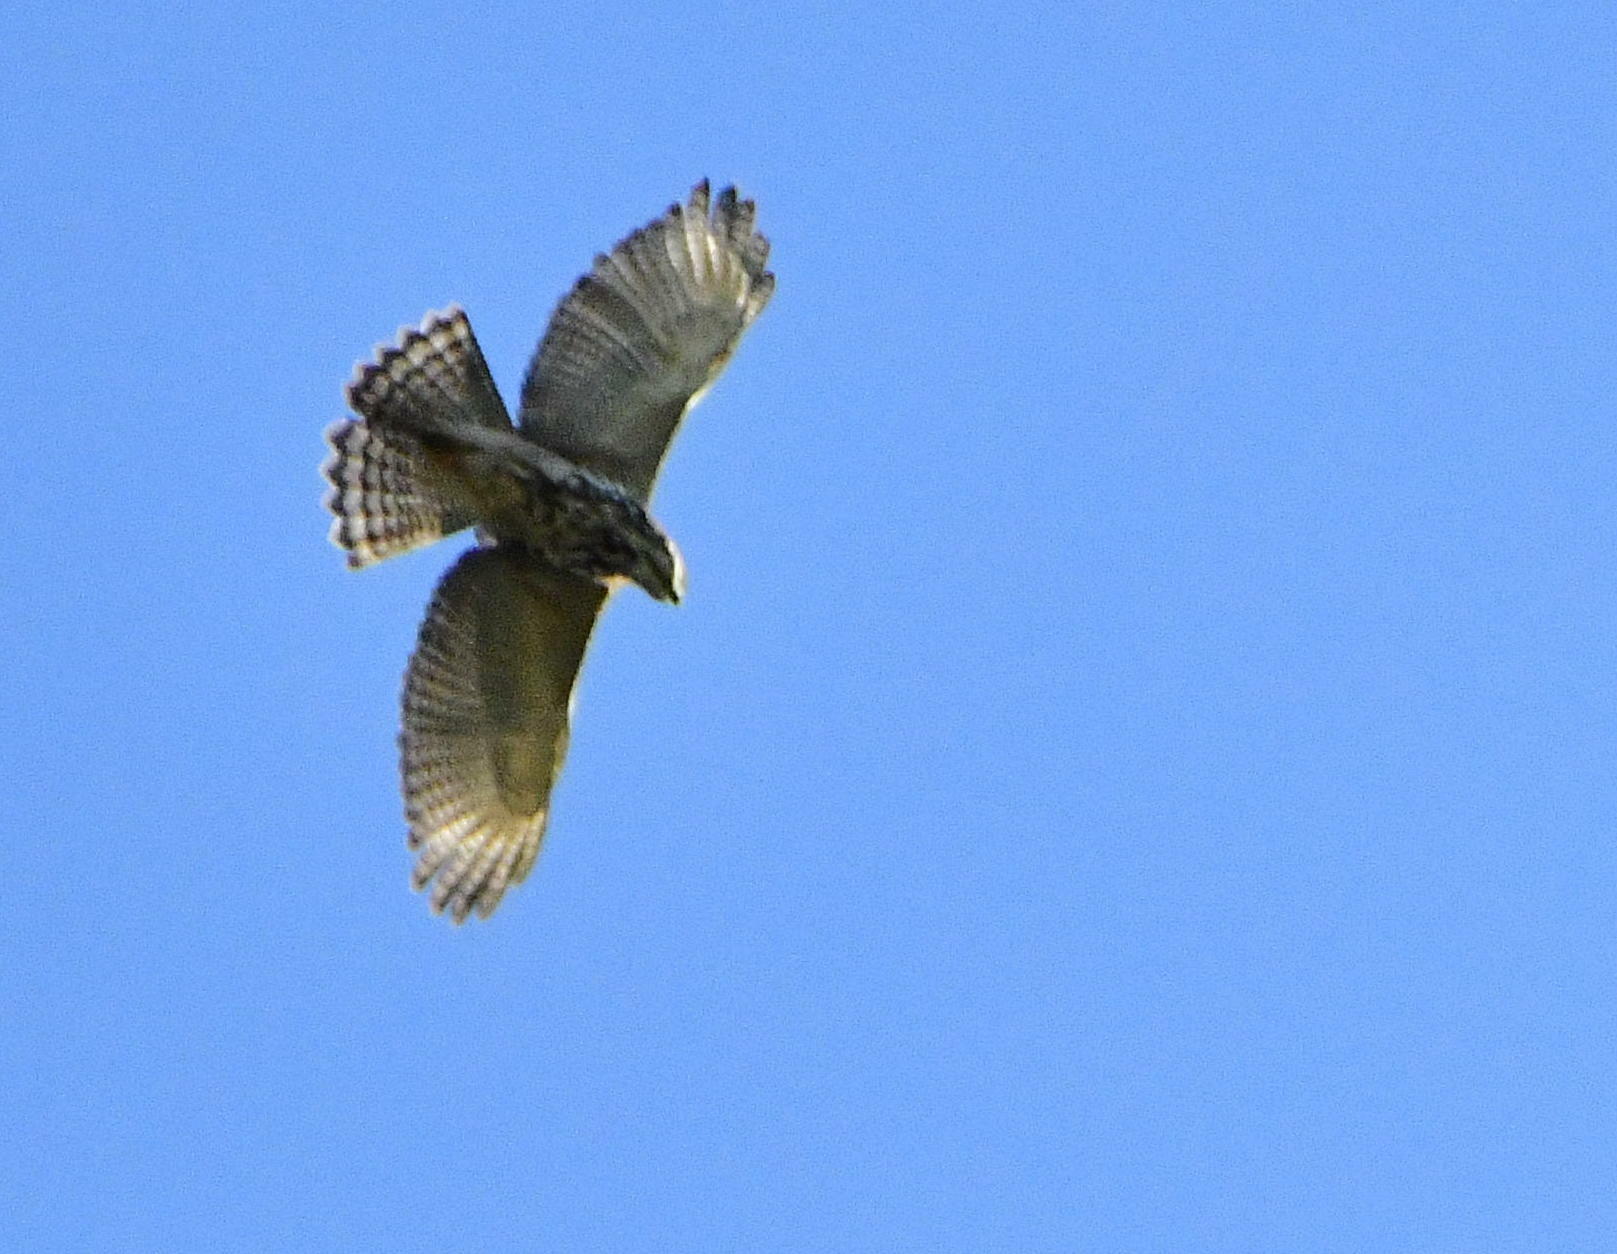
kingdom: Animalia
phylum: Chordata
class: Aves
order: Accipitriformes
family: Accipitridae
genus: Buteo
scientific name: Buteo nitidus
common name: Grey-lined hawk
